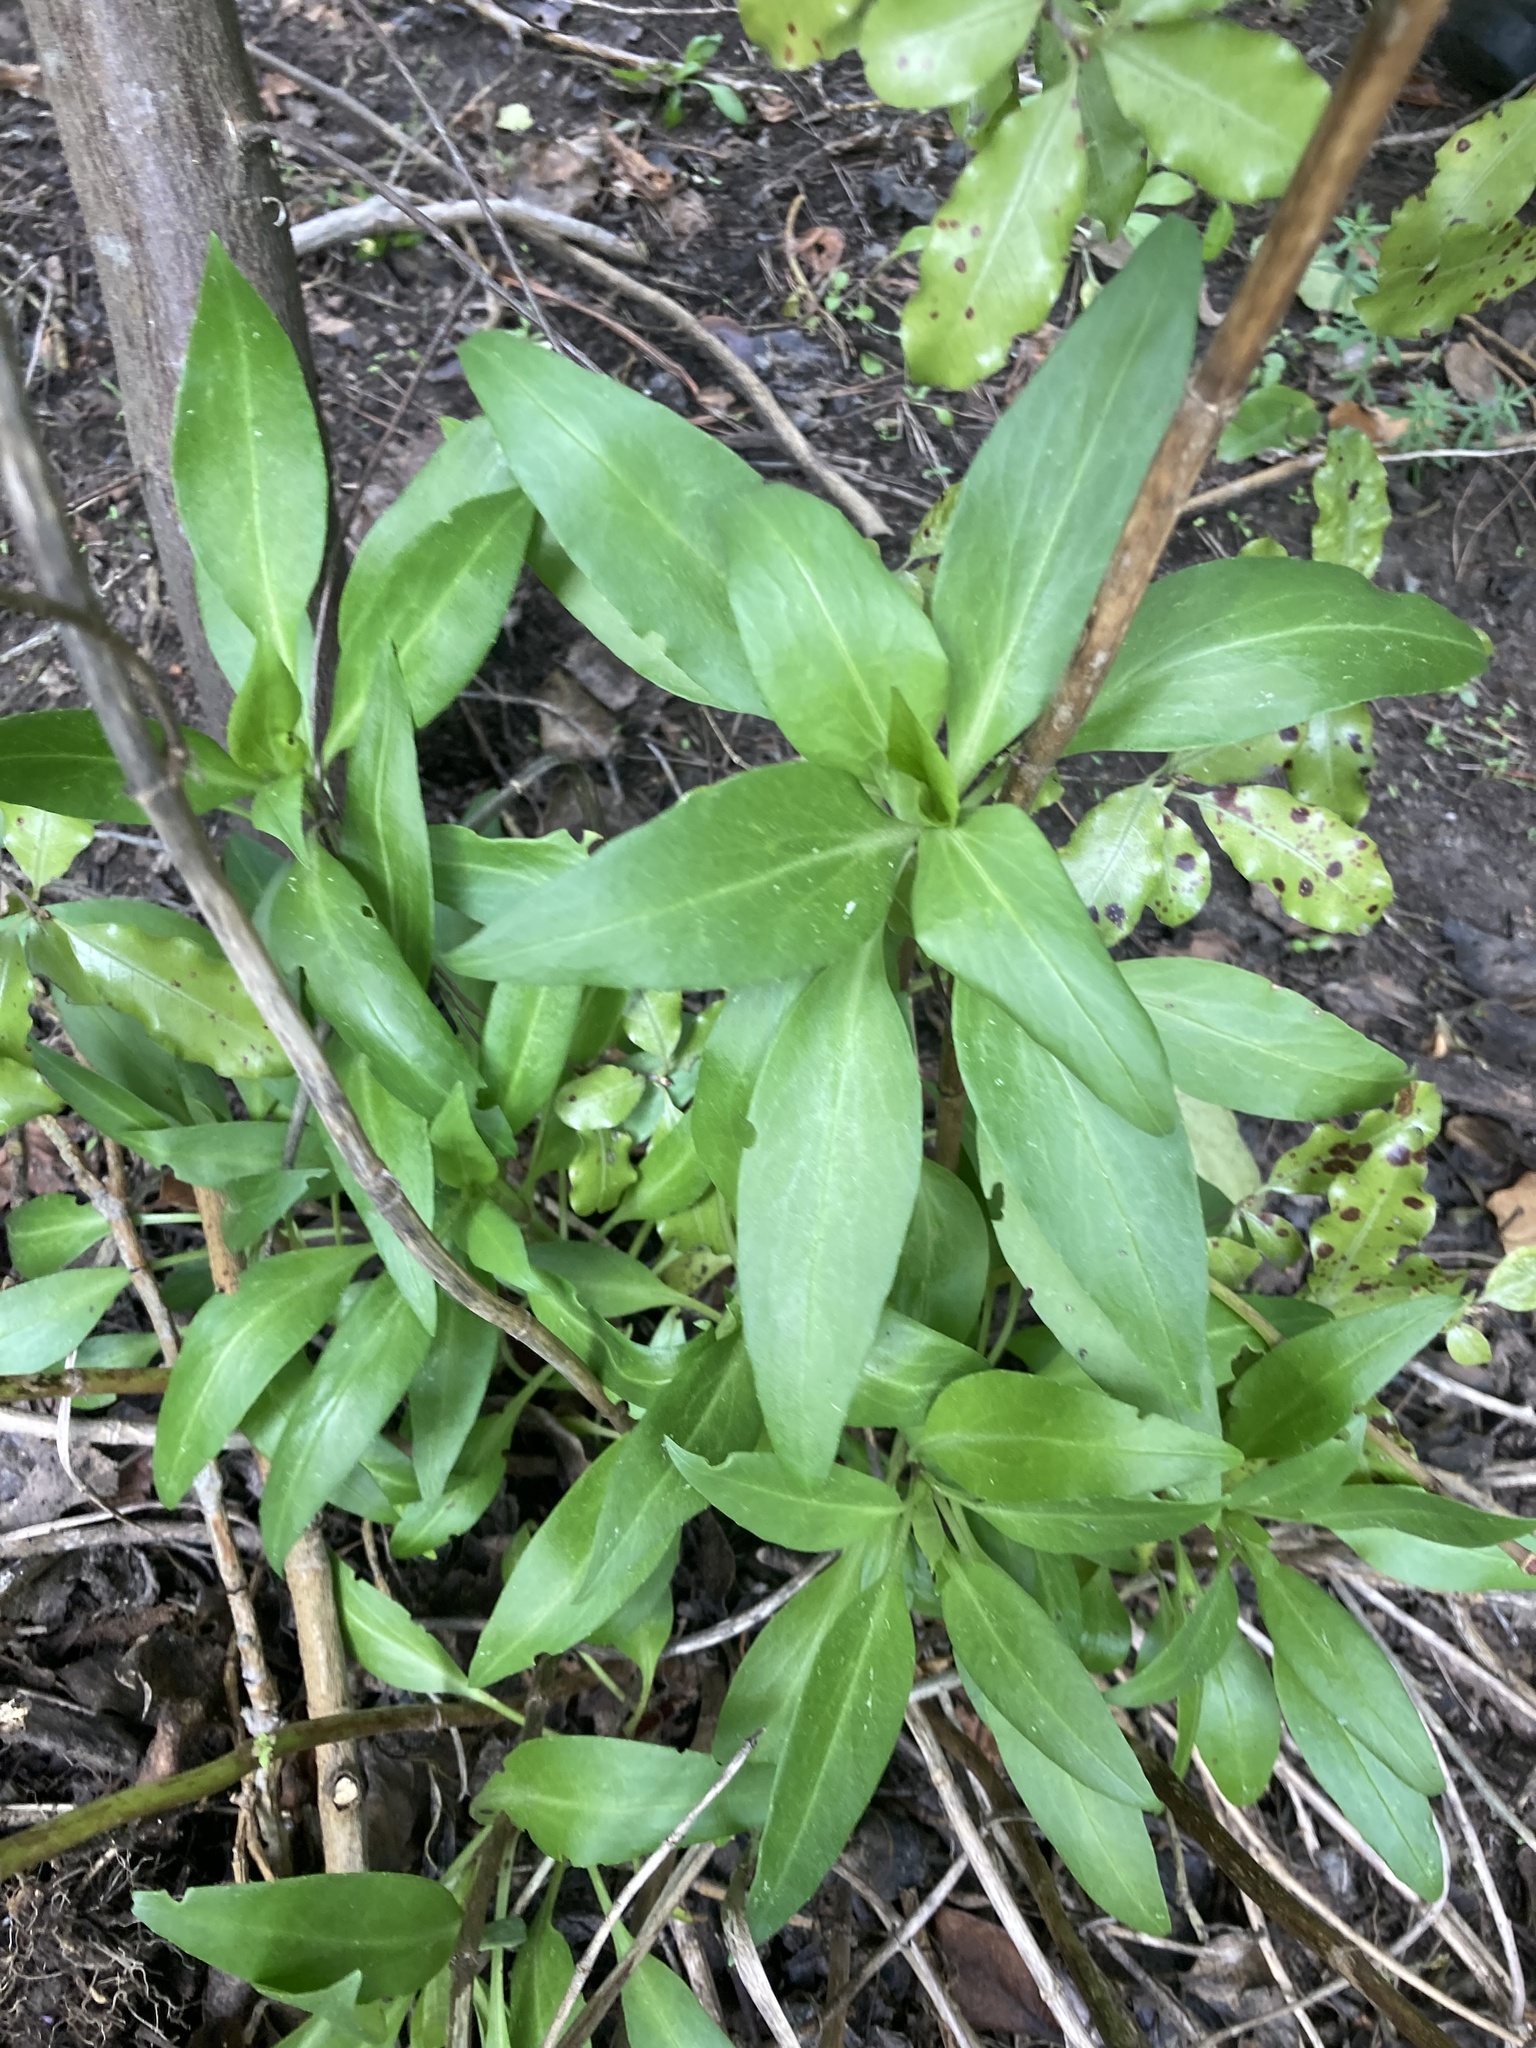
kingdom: Plantae
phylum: Tracheophyta
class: Magnoliopsida
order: Dipsacales
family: Caprifoliaceae
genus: Centranthus
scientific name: Centranthus ruber
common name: Red valerian
